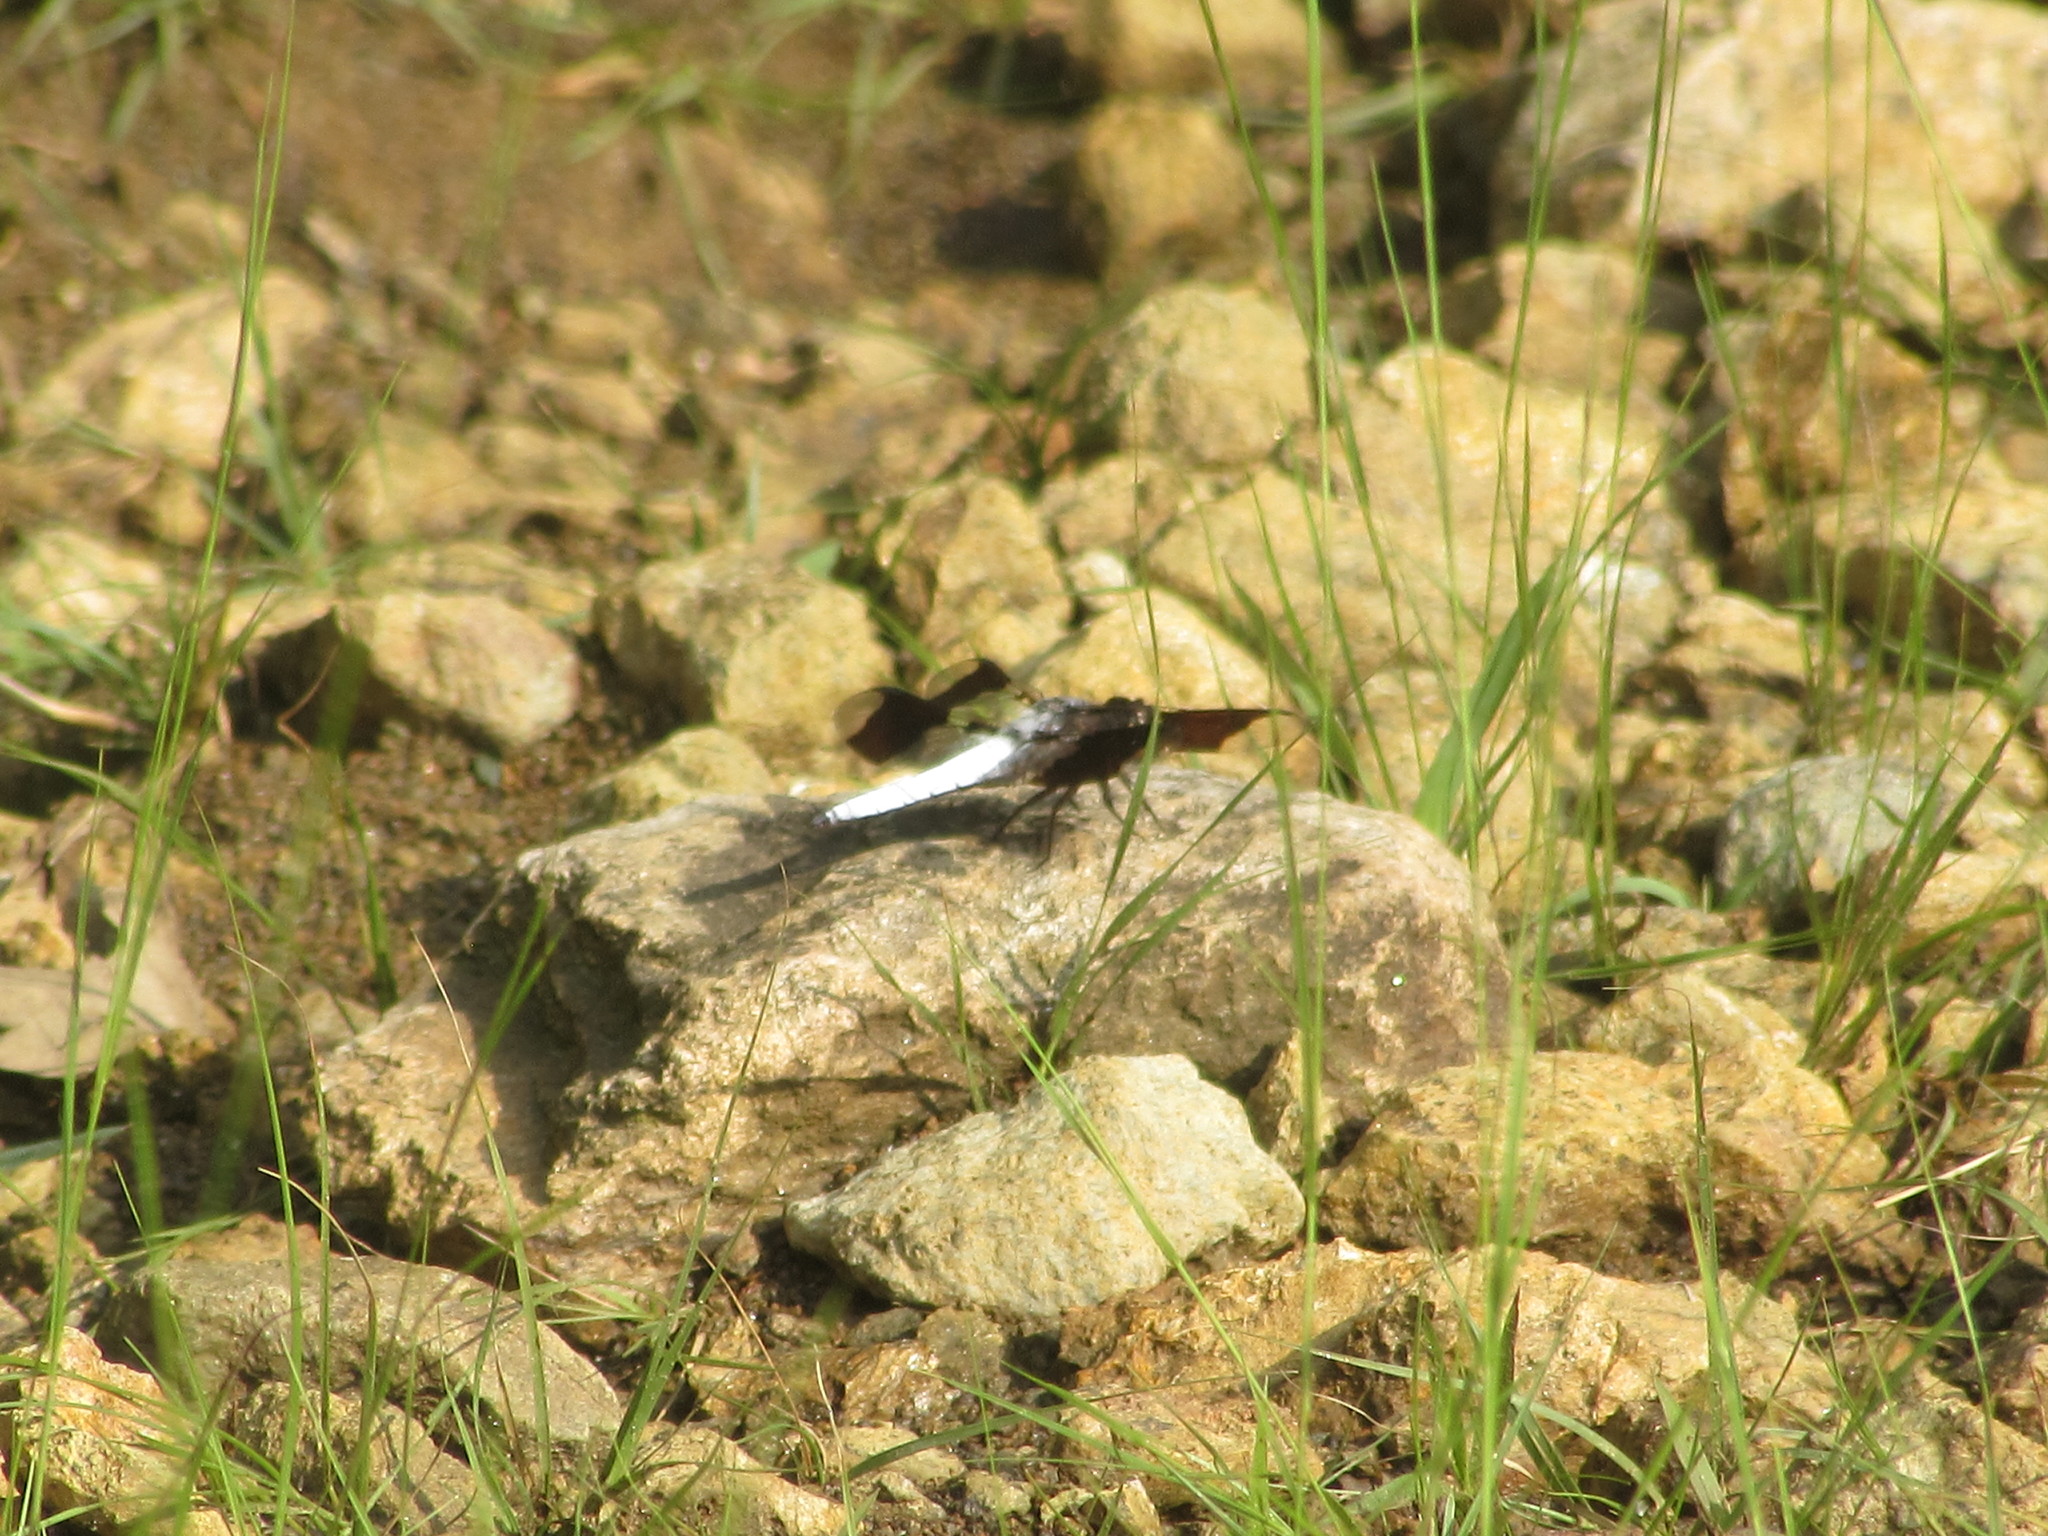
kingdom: Animalia
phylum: Arthropoda
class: Insecta
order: Odonata
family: Libellulidae
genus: Plathemis
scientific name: Plathemis lydia
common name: Common whitetail
